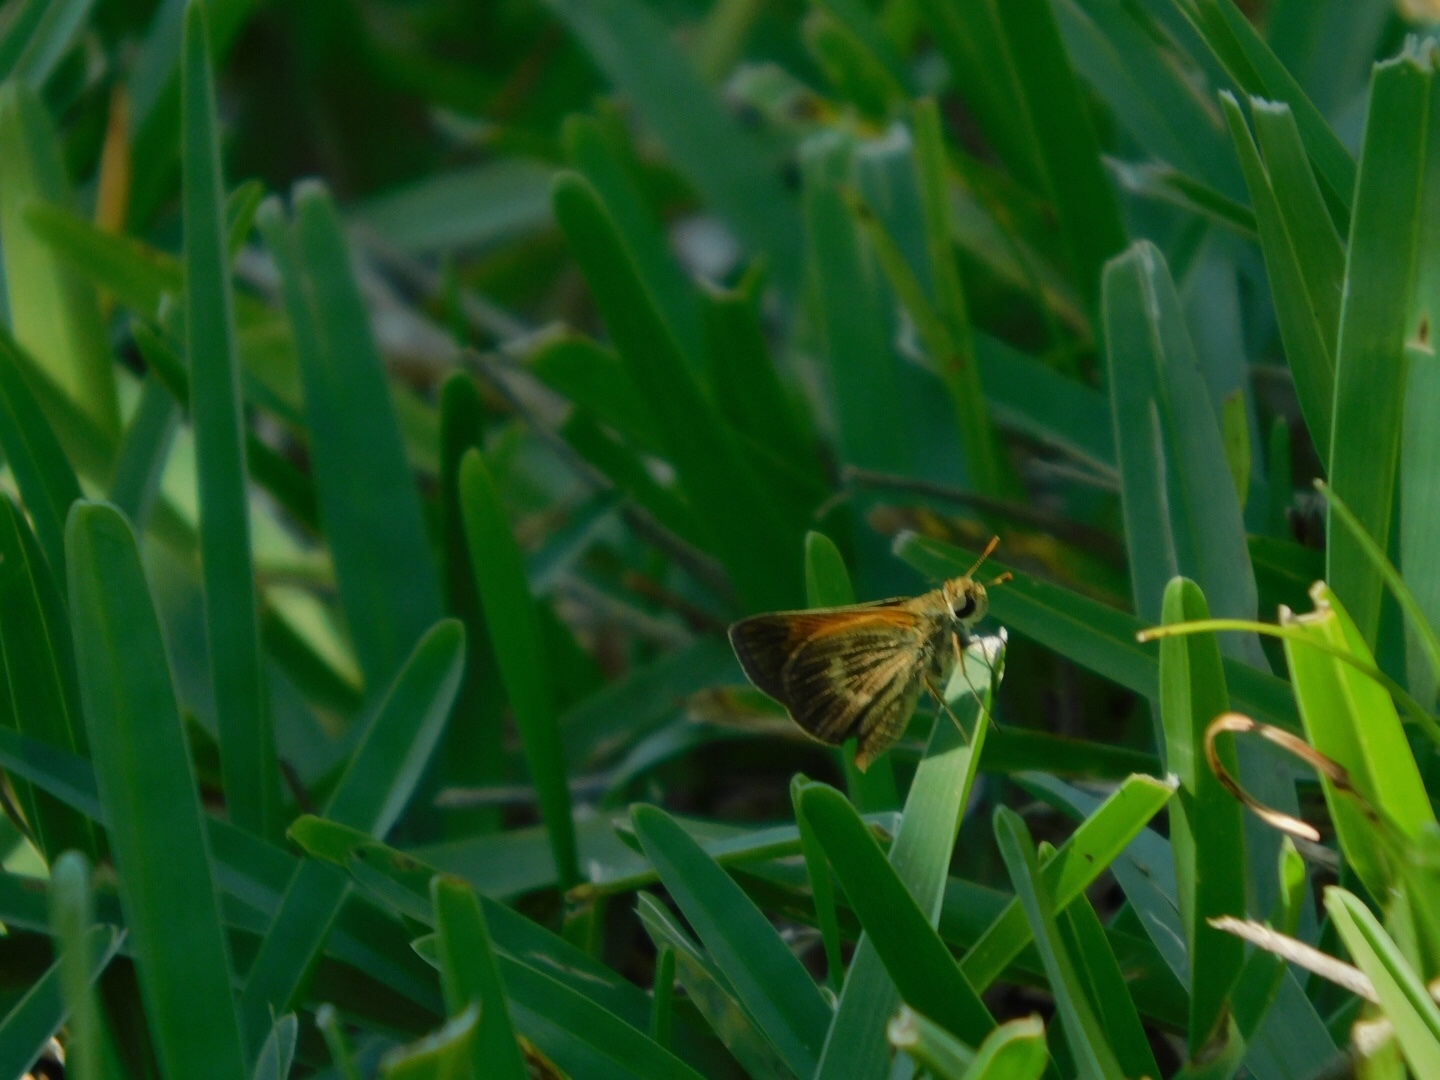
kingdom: Animalia
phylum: Arthropoda
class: Insecta
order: Lepidoptera
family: Hesperiidae
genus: Polites
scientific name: Polites baracoa
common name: Baracoa skipper
